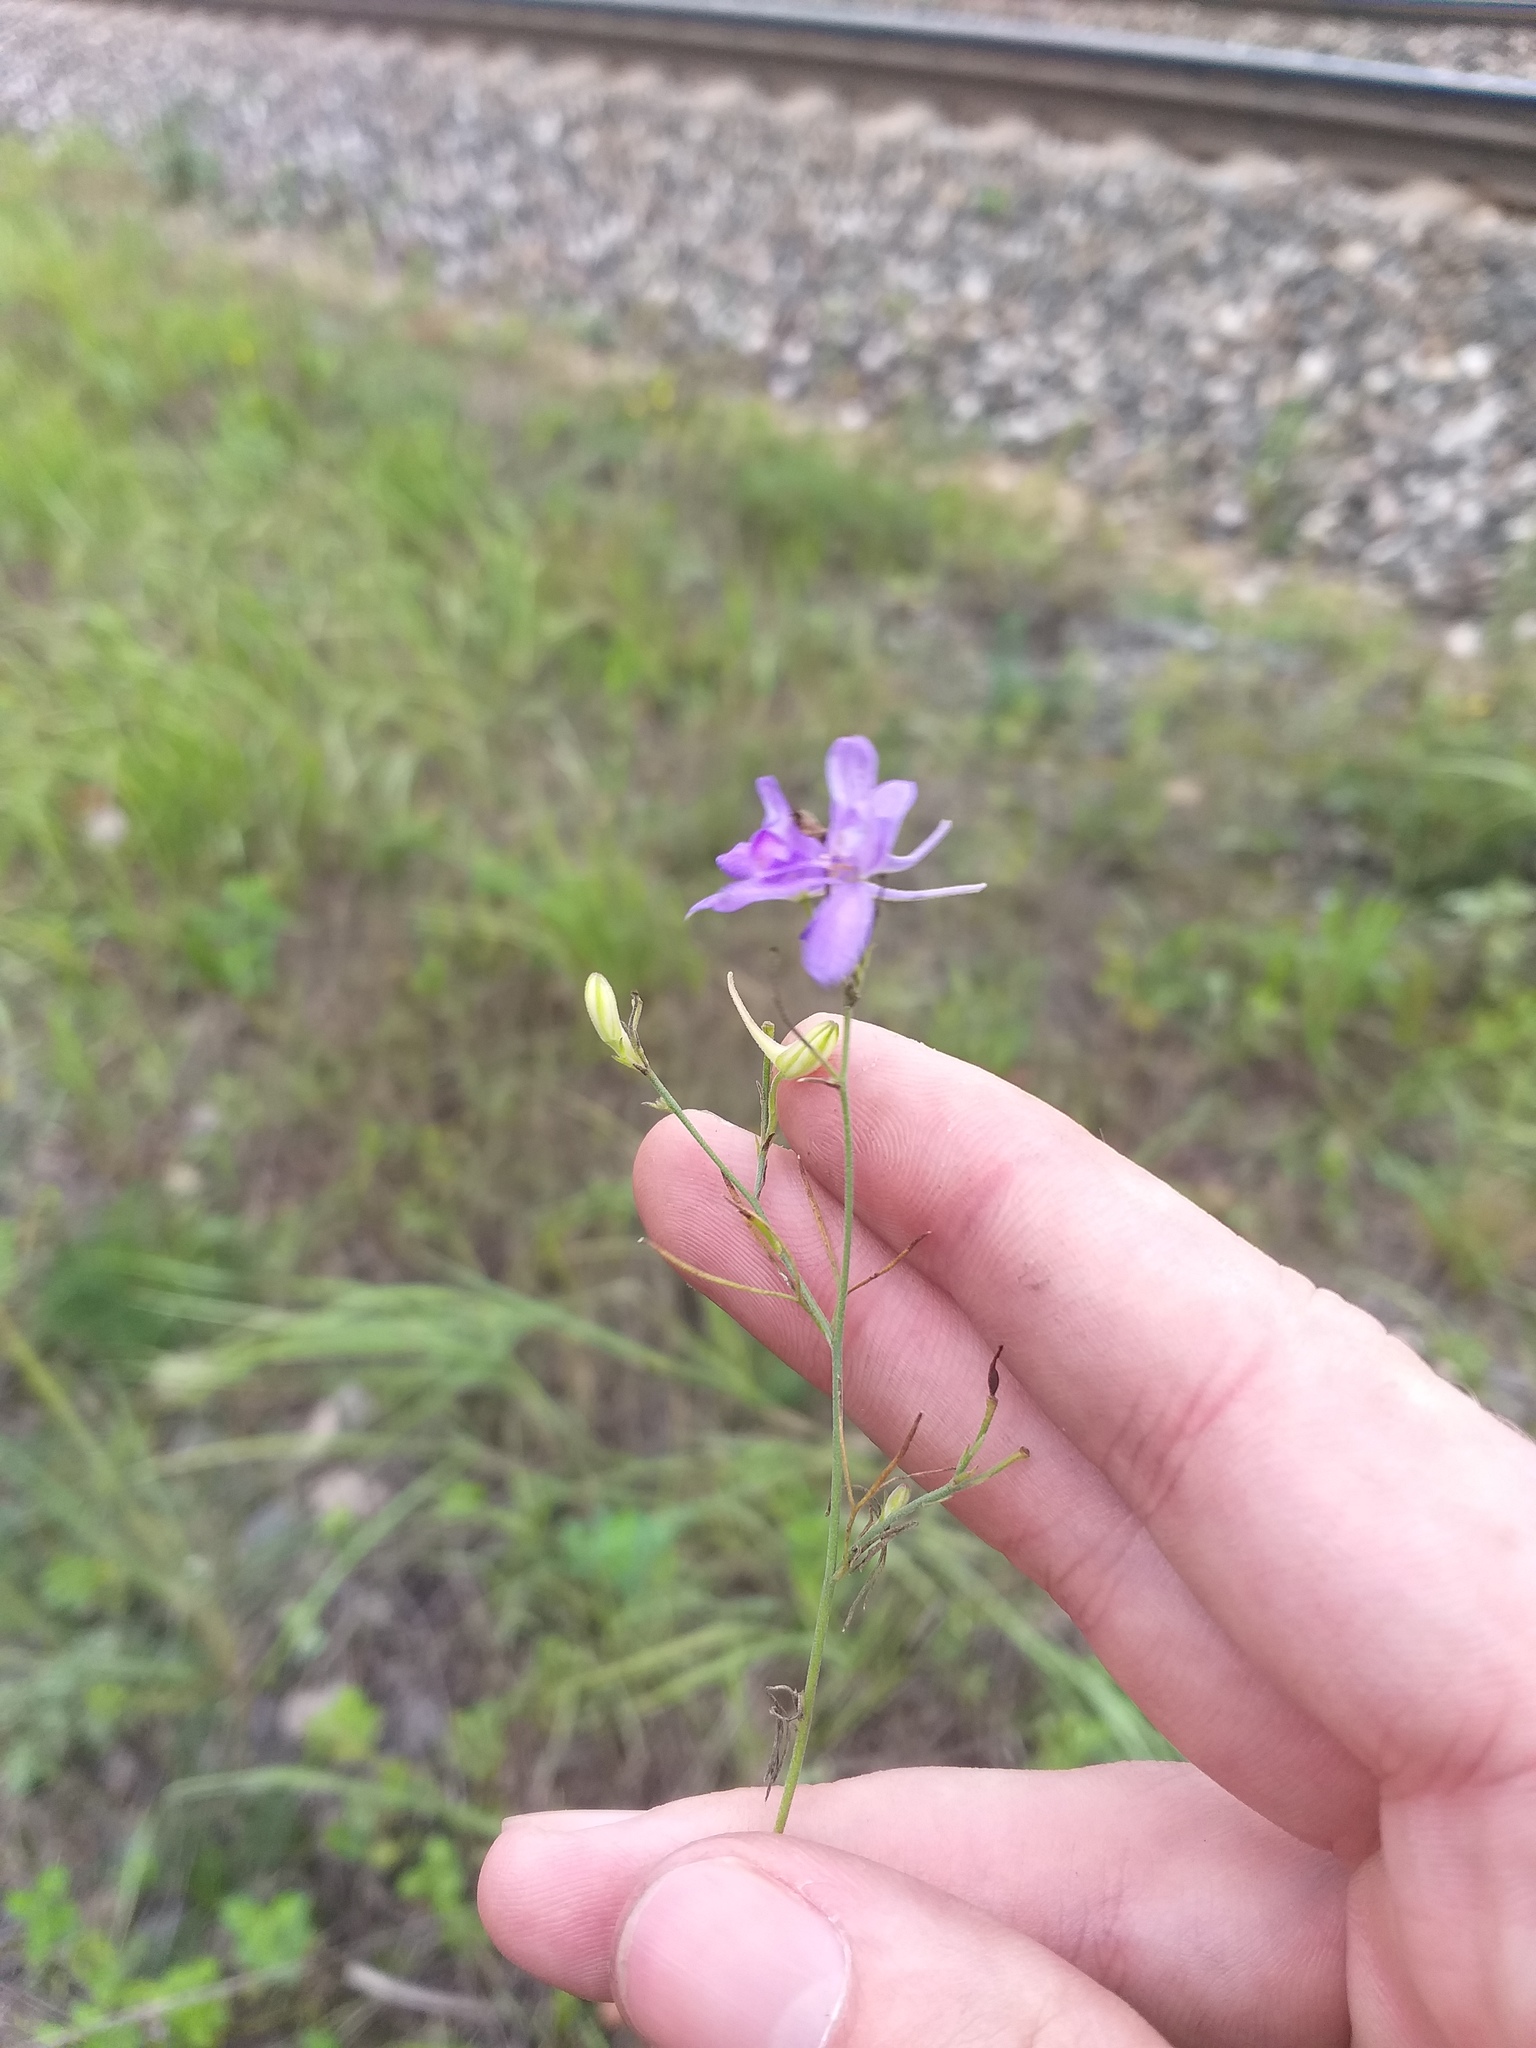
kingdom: Plantae
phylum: Tracheophyta
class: Magnoliopsida
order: Ranunculales
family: Ranunculaceae
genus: Delphinium
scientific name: Delphinium consolida
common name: Branching larkspur
